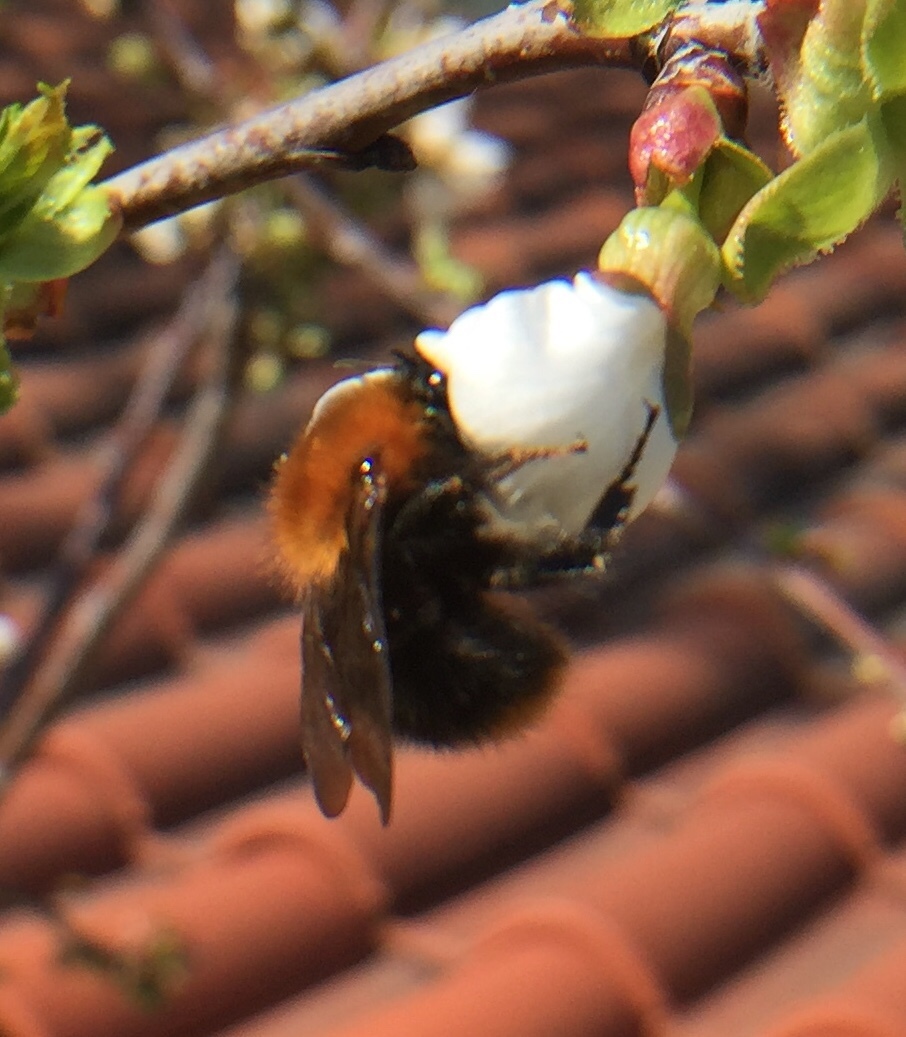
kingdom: Animalia
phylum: Arthropoda
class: Insecta
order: Hymenoptera
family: Apidae
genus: Bombus
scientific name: Bombus pascuorum
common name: Common carder bee
